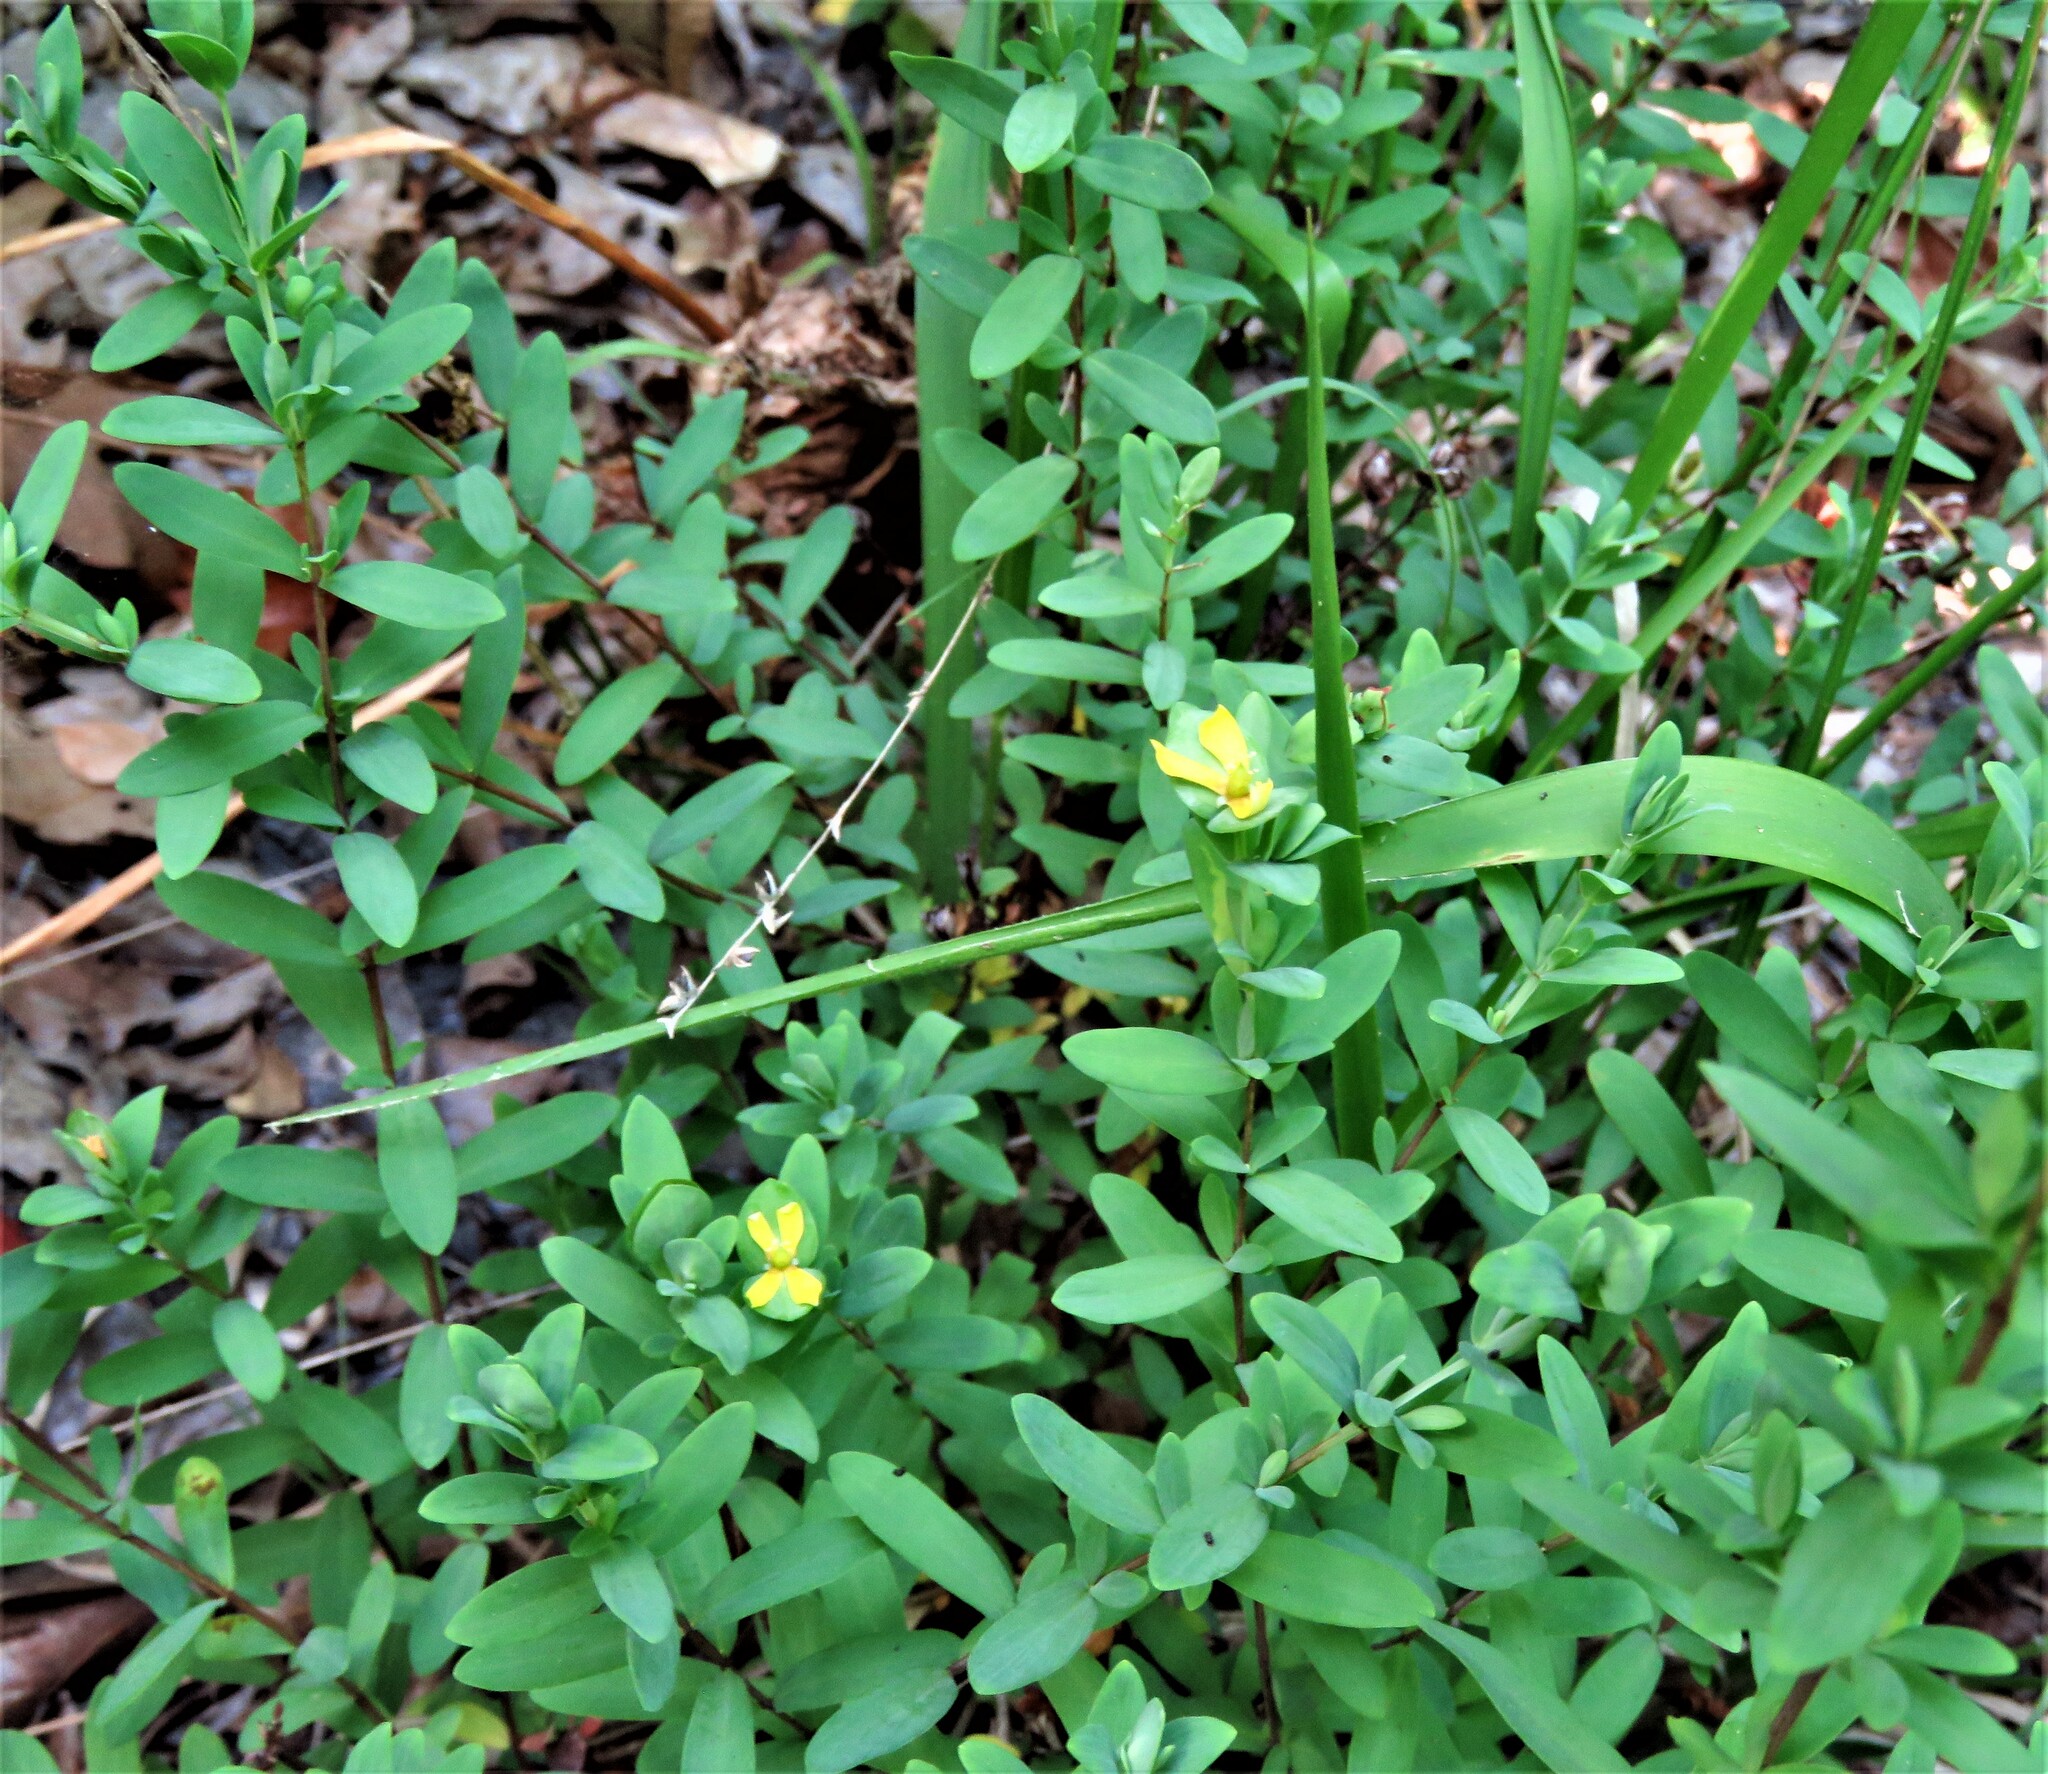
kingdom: Plantae
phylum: Tracheophyta
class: Magnoliopsida
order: Malpighiales
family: Hypericaceae
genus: Hypericum
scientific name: Hypericum hypericoides
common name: St. andrew's cross
